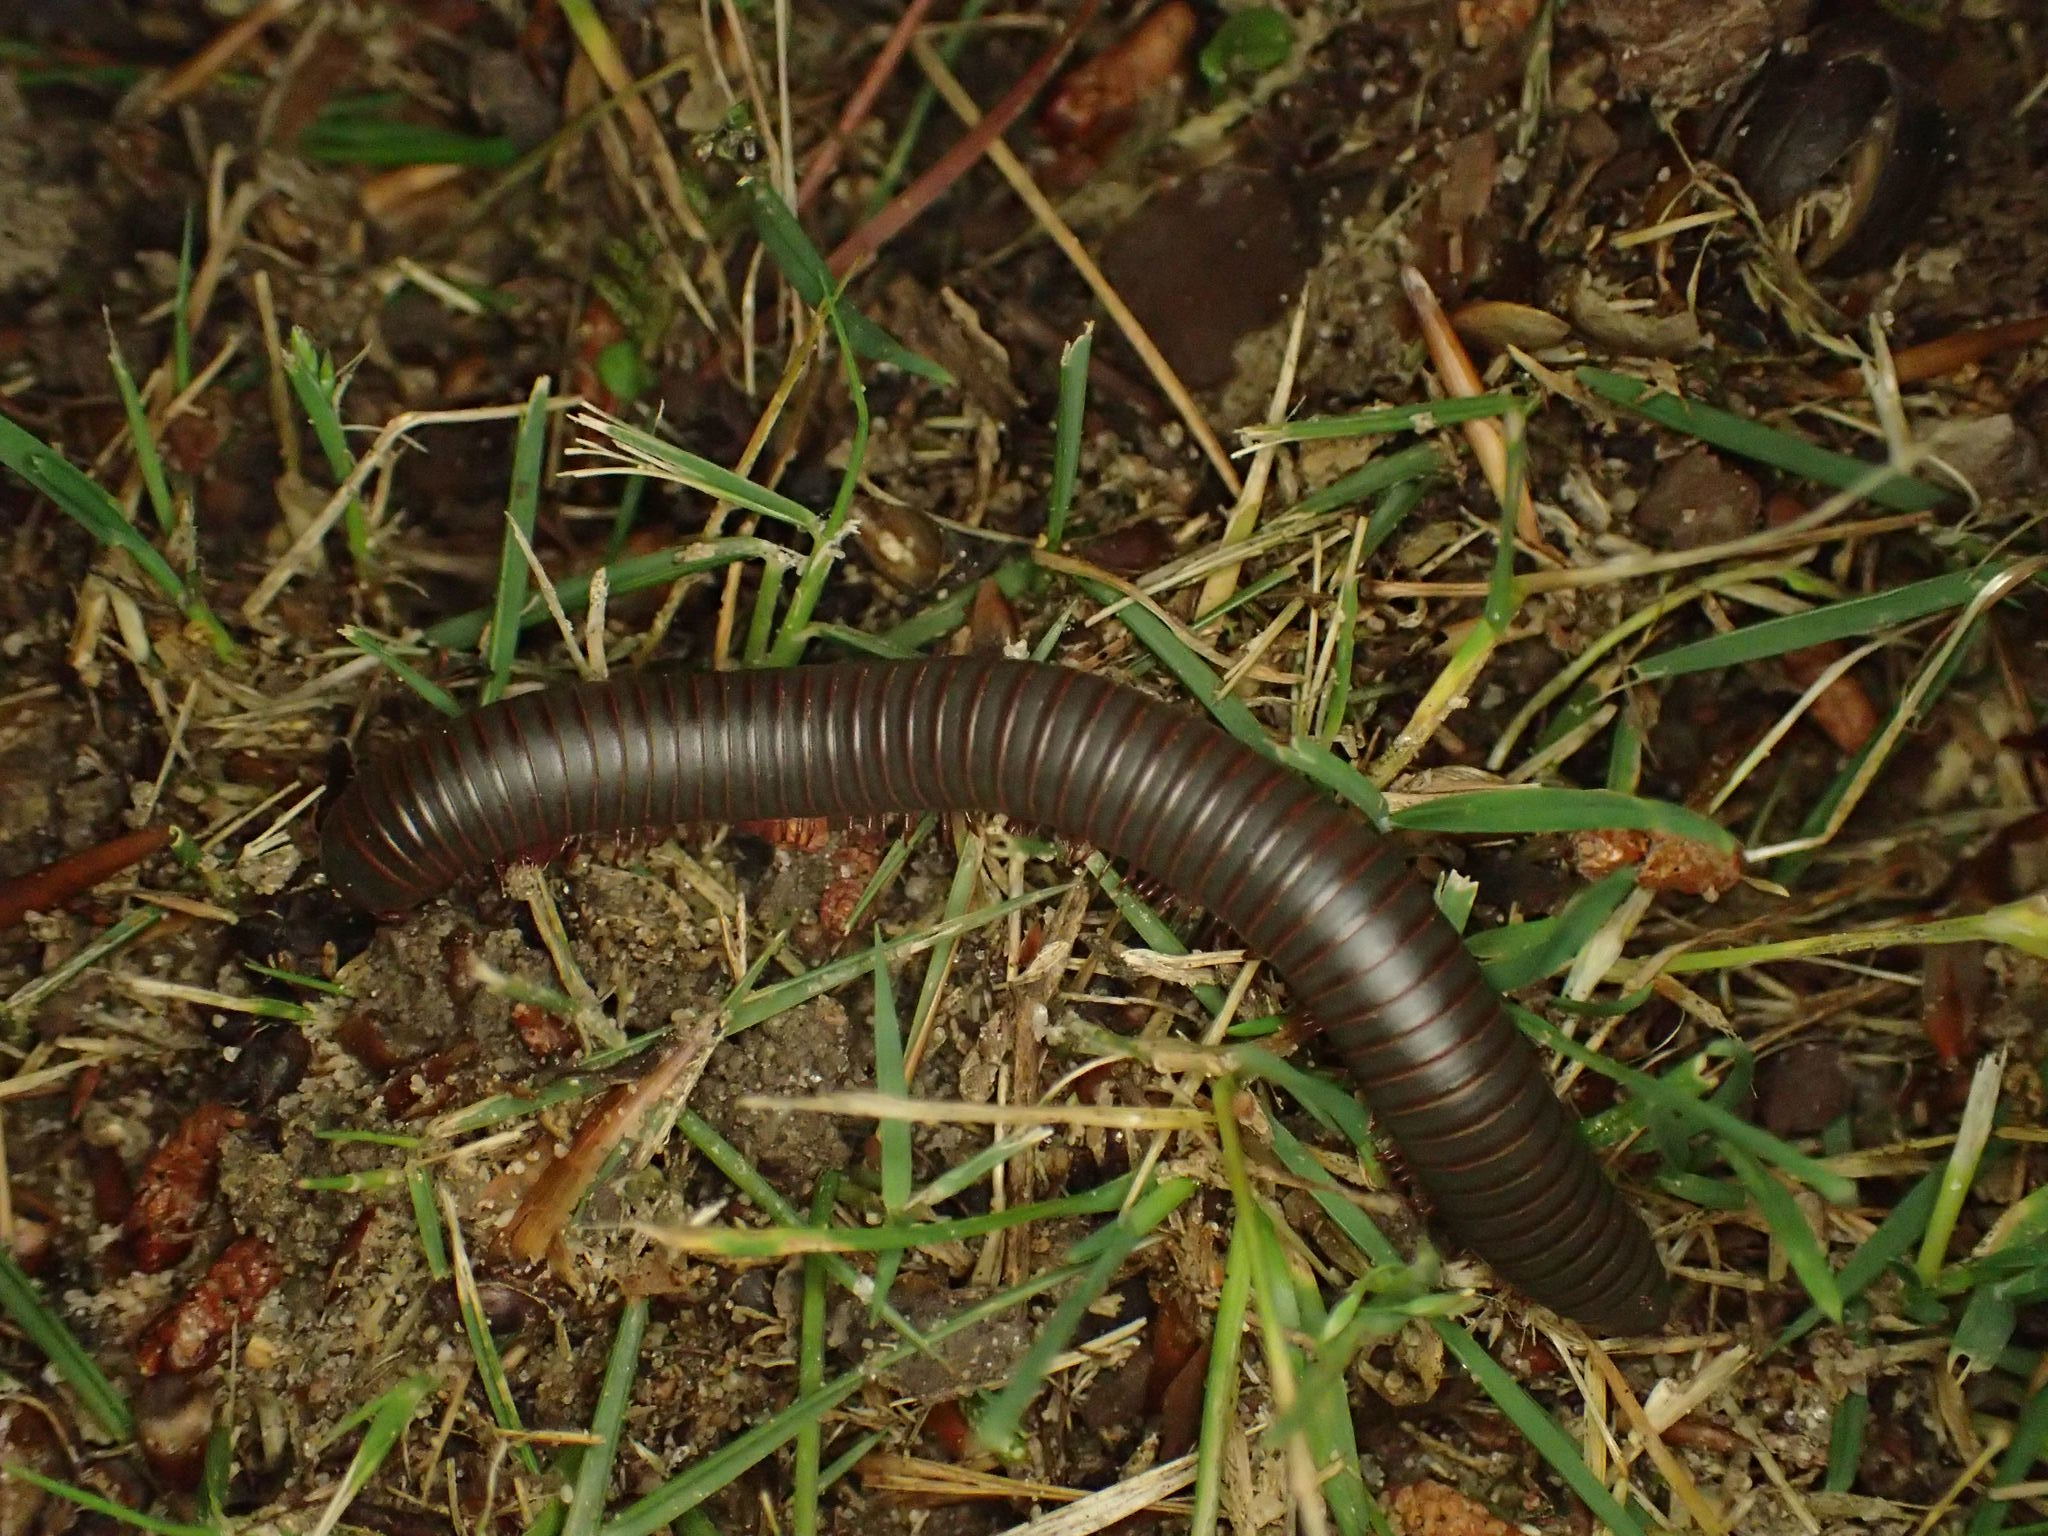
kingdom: Animalia
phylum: Arthropoda
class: Diplopoda
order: Spirobolida
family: Spirobolidae
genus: Narceus
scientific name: Narceus
